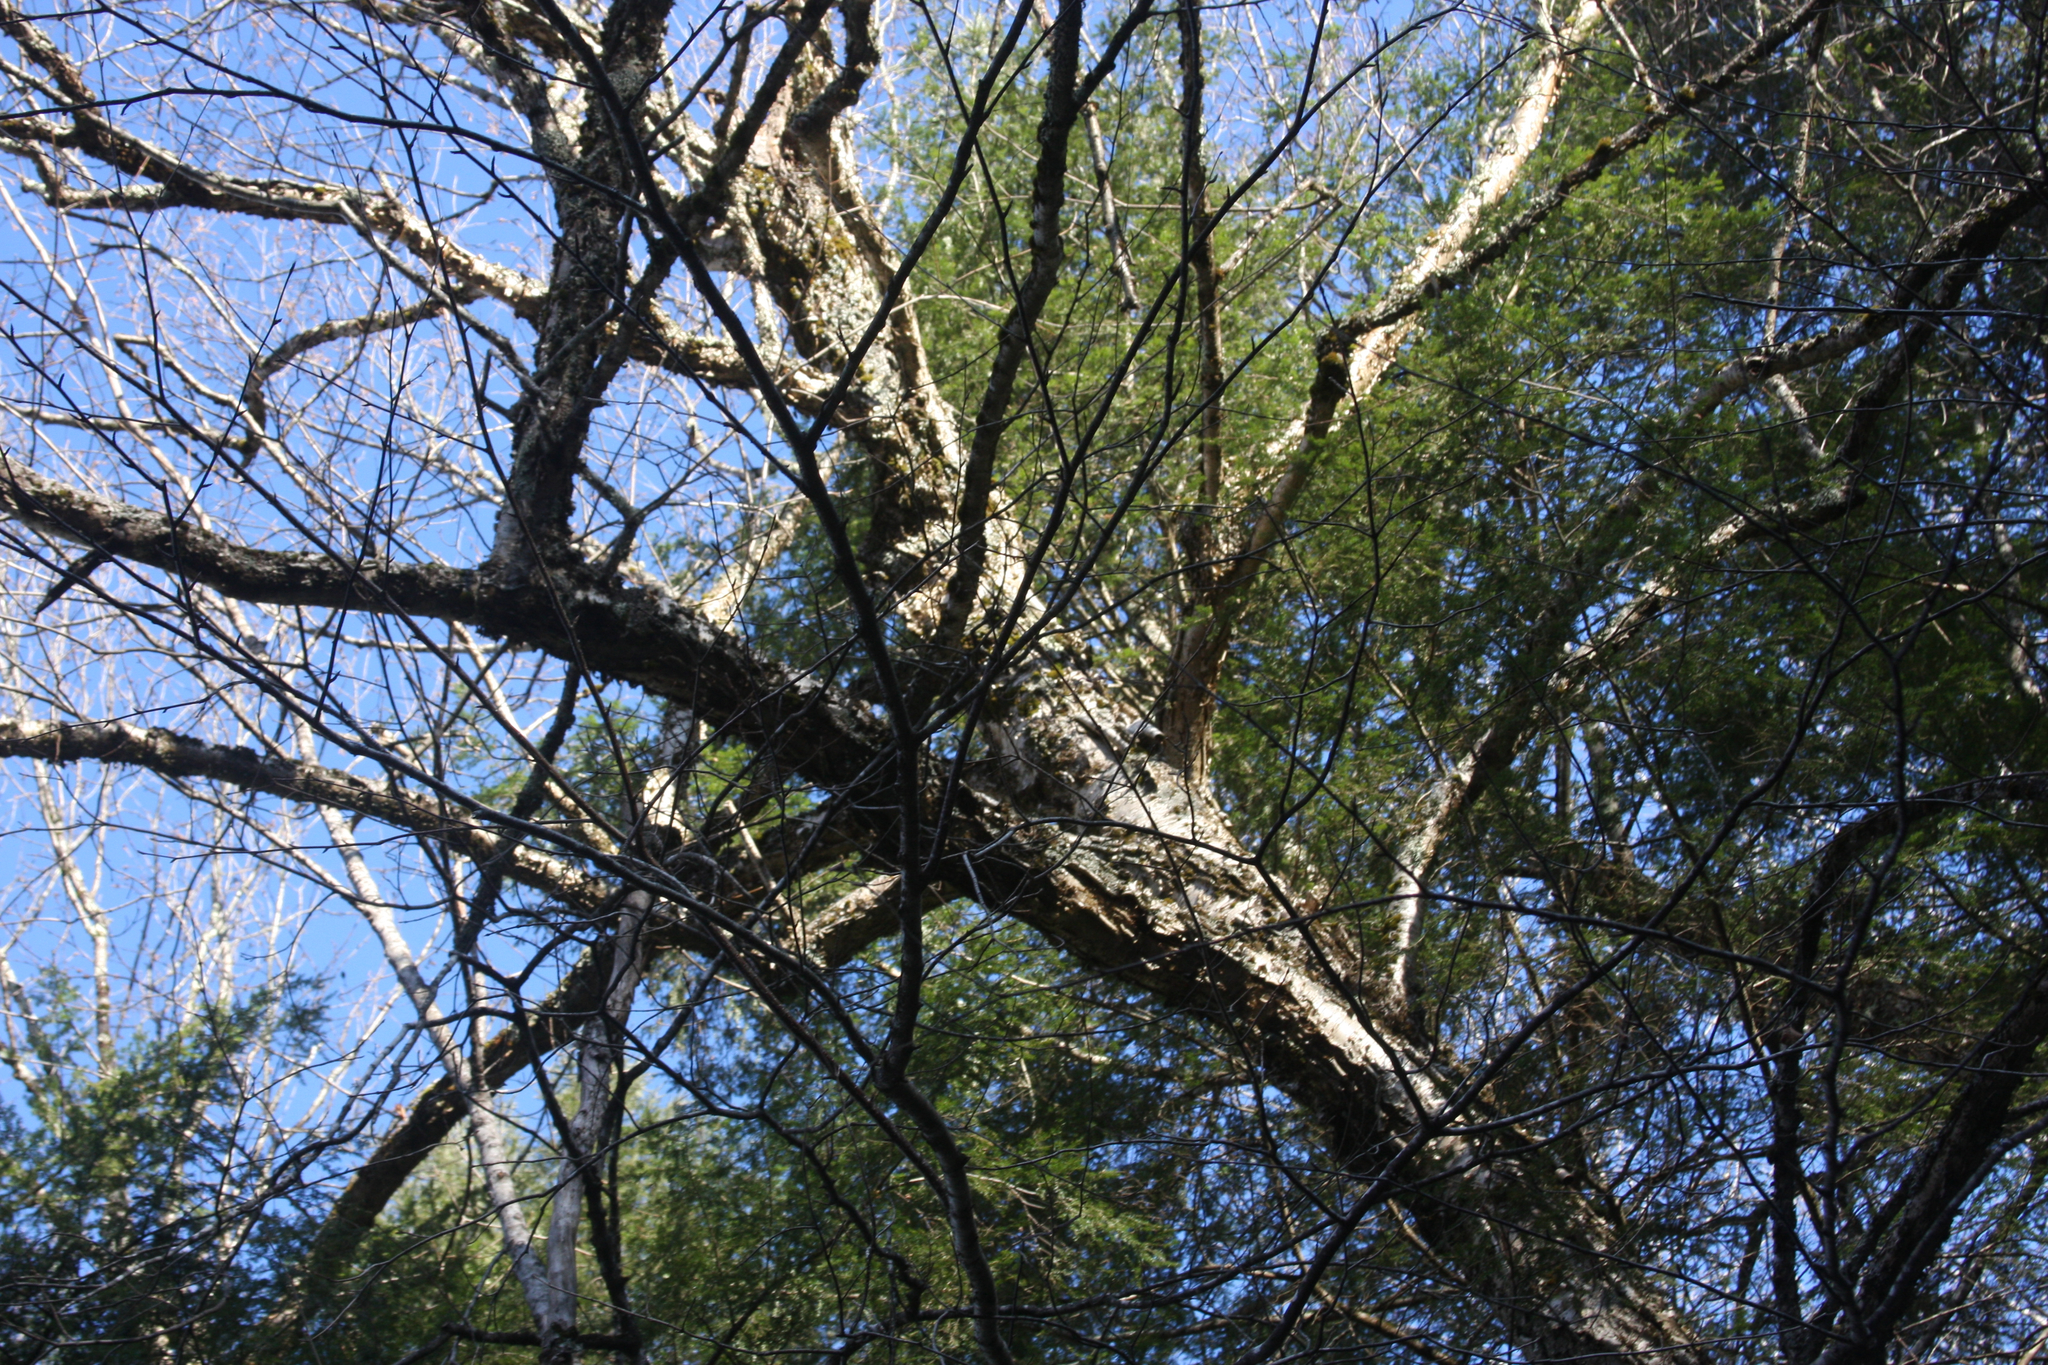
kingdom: Plantae
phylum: Tracheophyta
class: Magnoliopsida
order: Fagales
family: Betulaceae
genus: Betula
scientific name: Betula alleghaniensis
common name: Yellow birch
